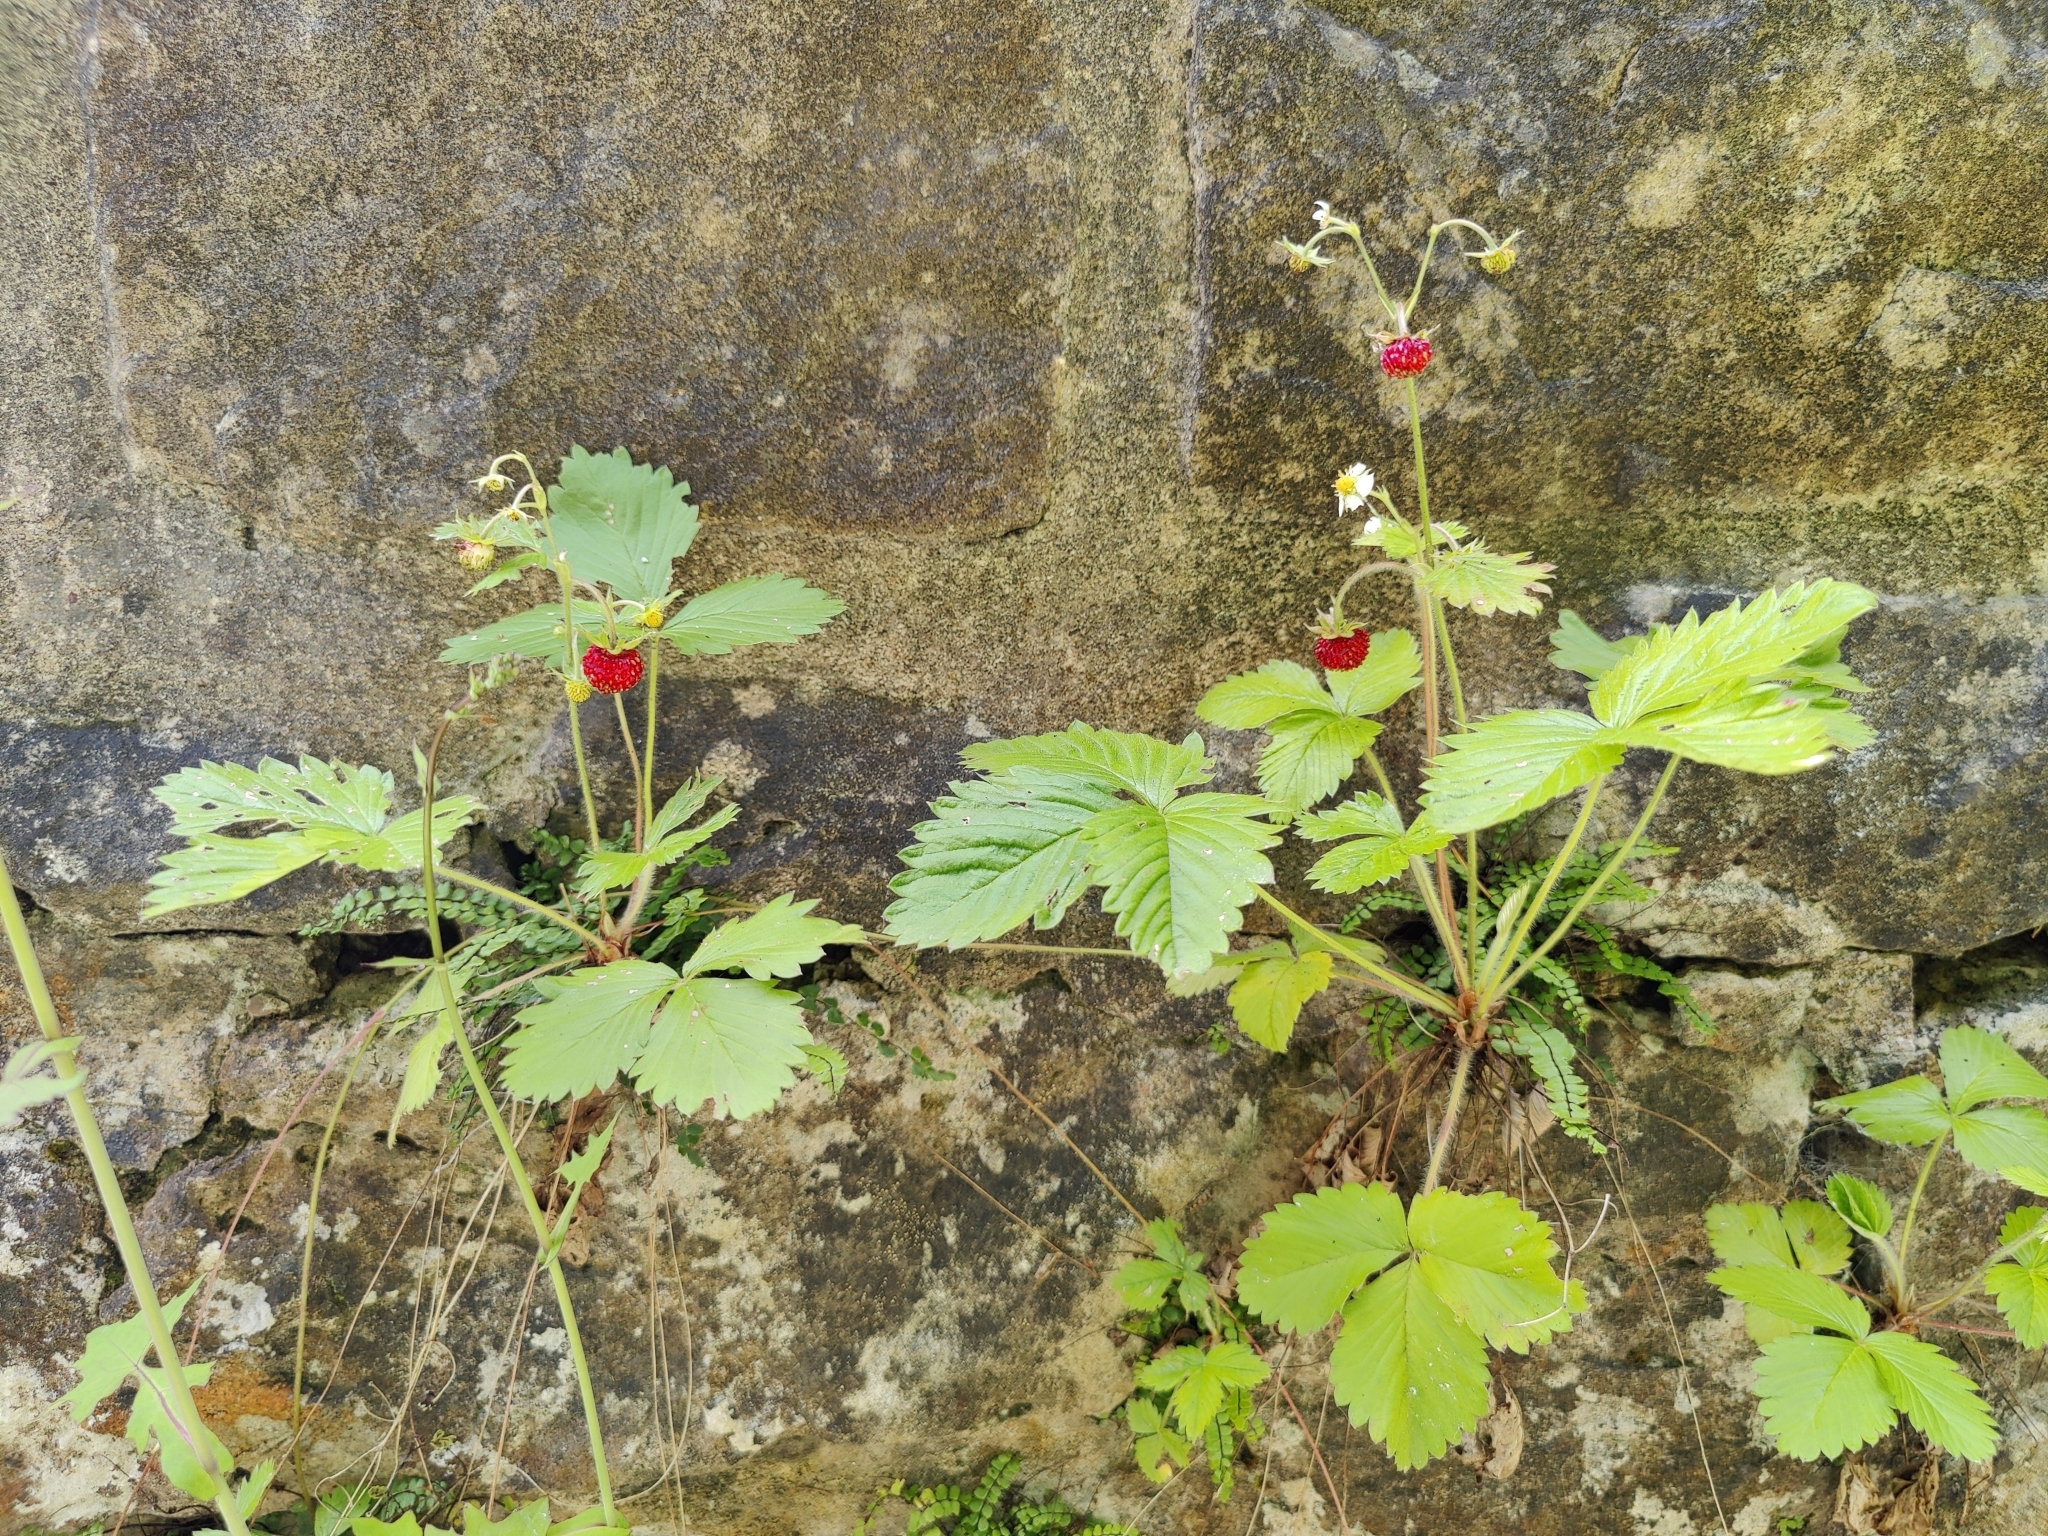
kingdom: Plantae
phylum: Tracheophyta
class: Magnoliopsida
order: Rosales
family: Rosaceae
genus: Fragaria
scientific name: Fragaria vesca
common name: Wild strawberry
